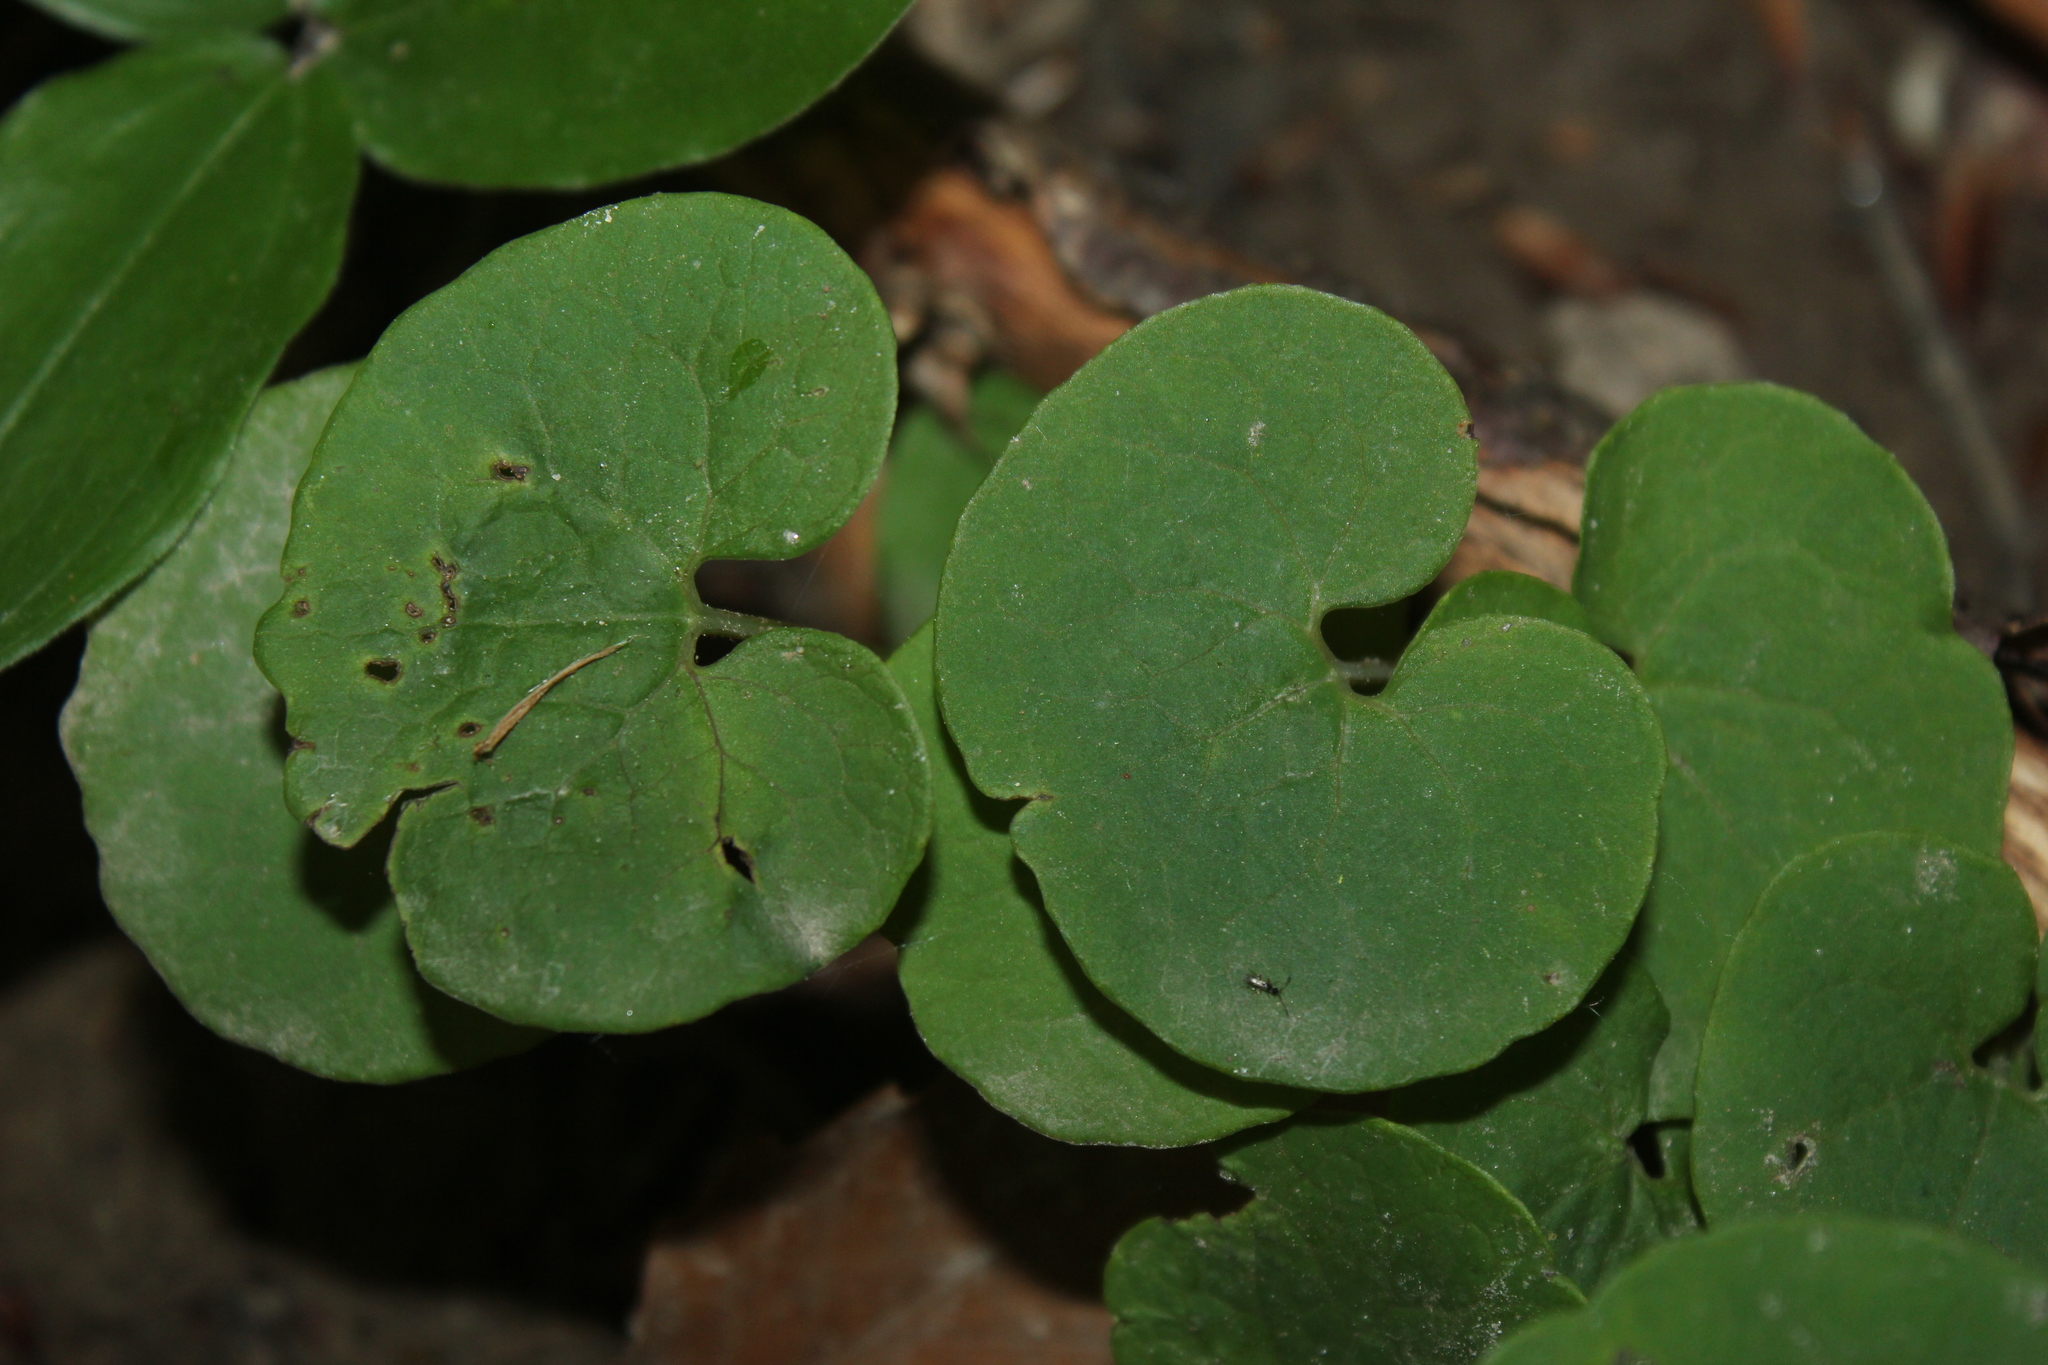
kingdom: Plantae
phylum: Tracheophyta
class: Magnoliopsida
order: Piperales
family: Aristolochiaceae
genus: Asarum
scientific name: Asarum canadense
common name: Wild ginger
